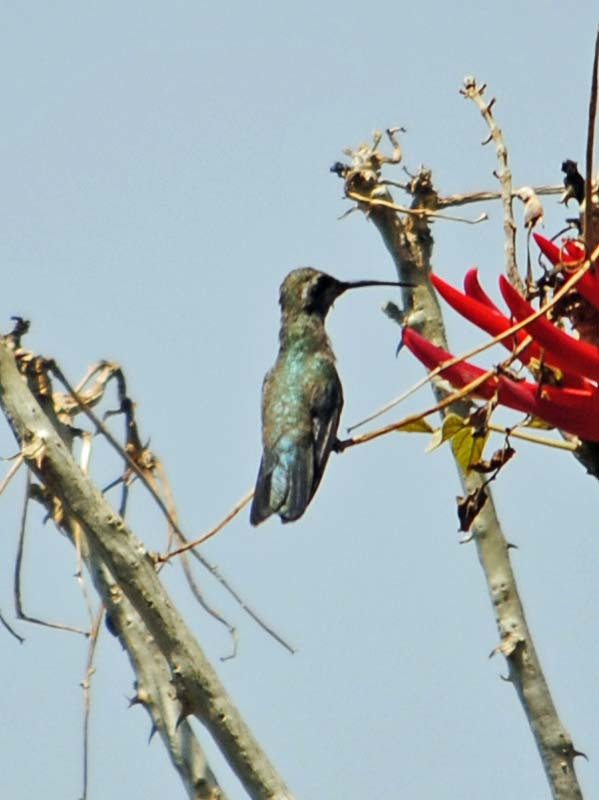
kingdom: Animalia
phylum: Chordata
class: Aves
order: Apodiformes
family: Trochilidae
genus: Cynanthus
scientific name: Cynanthus latirostris
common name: Broad-billed hummingbird
